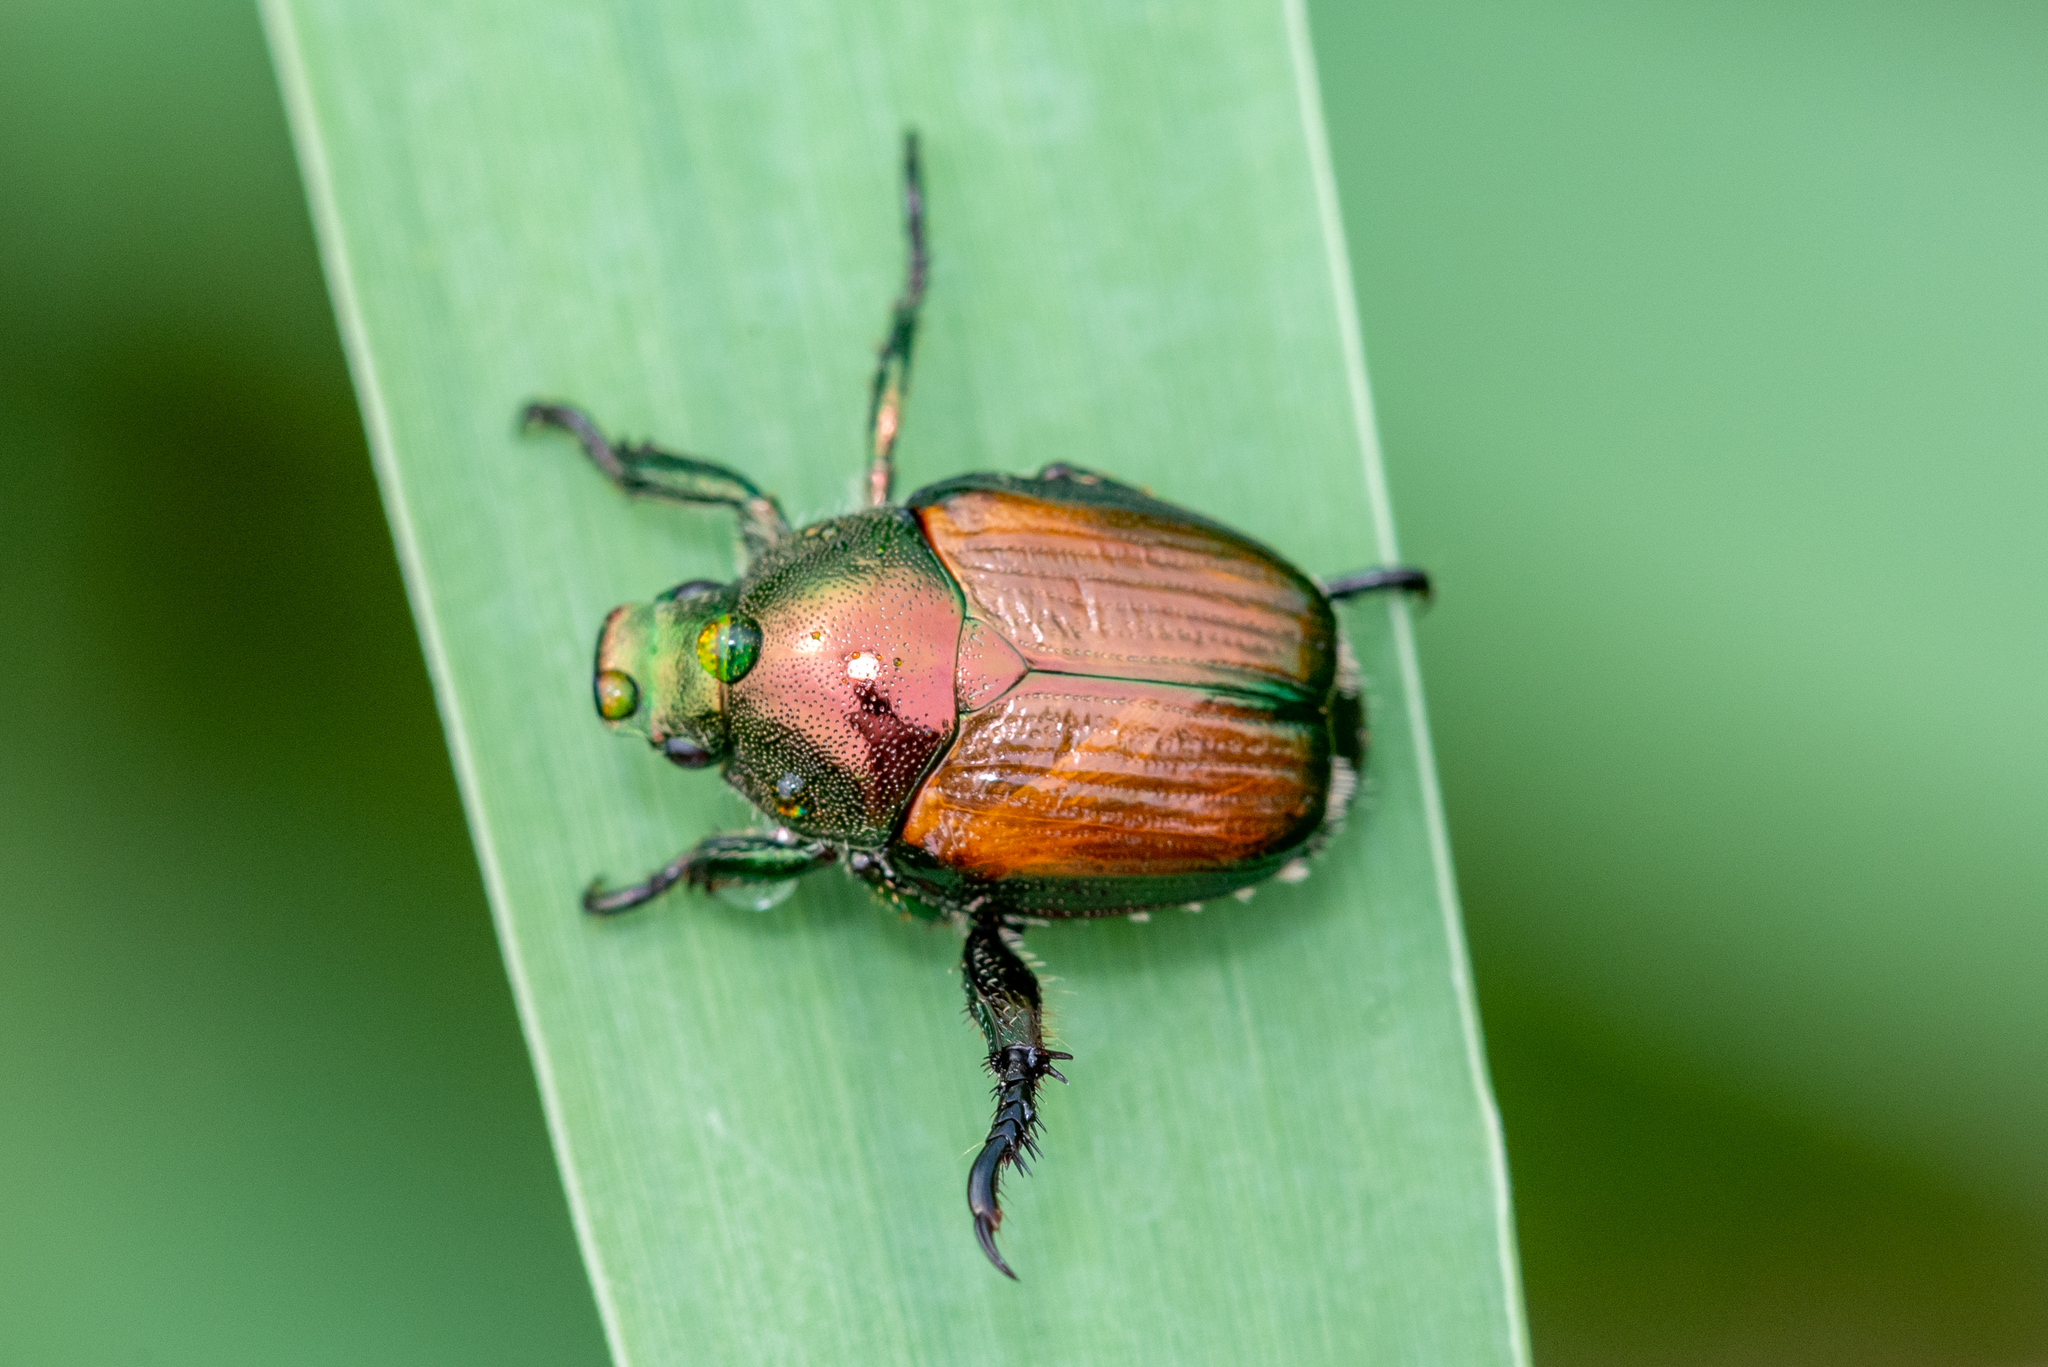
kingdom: Animalia
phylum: Arthropoda
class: Insecta
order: Coleoptera
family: Scarabaeidae
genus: Popillia
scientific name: Popillia japonica
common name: Japanese beetle
